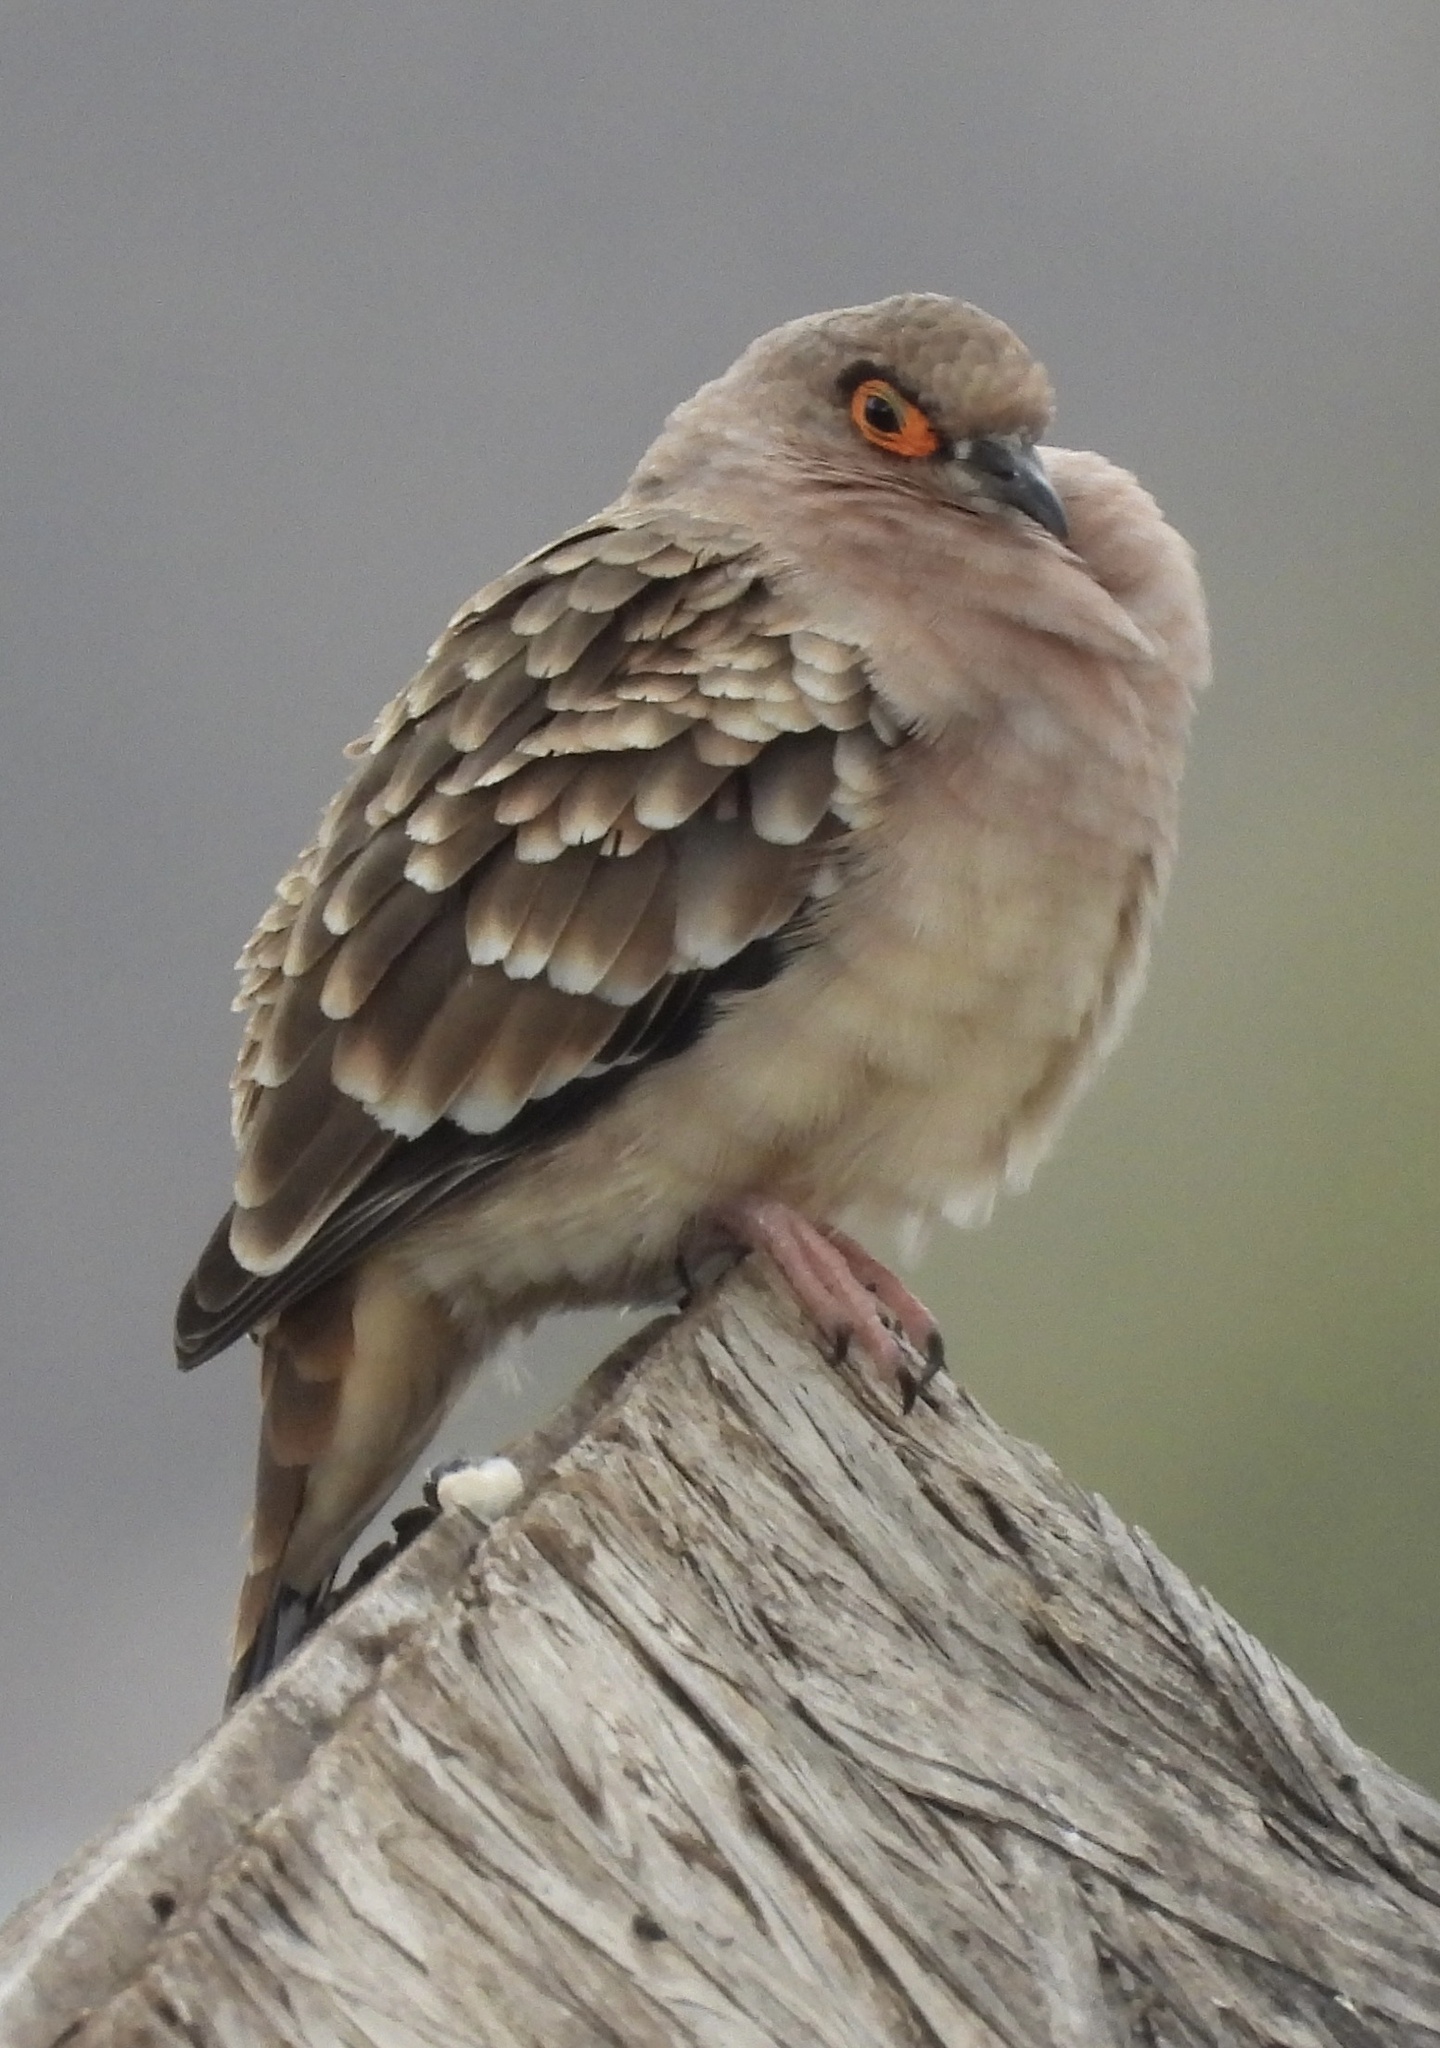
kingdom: Animalia
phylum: Chordata
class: Aves
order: Columbiformes
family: Columbidae
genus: Metriopelia
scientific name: Metriopelia ceciliae
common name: Bare-faced ground dove
